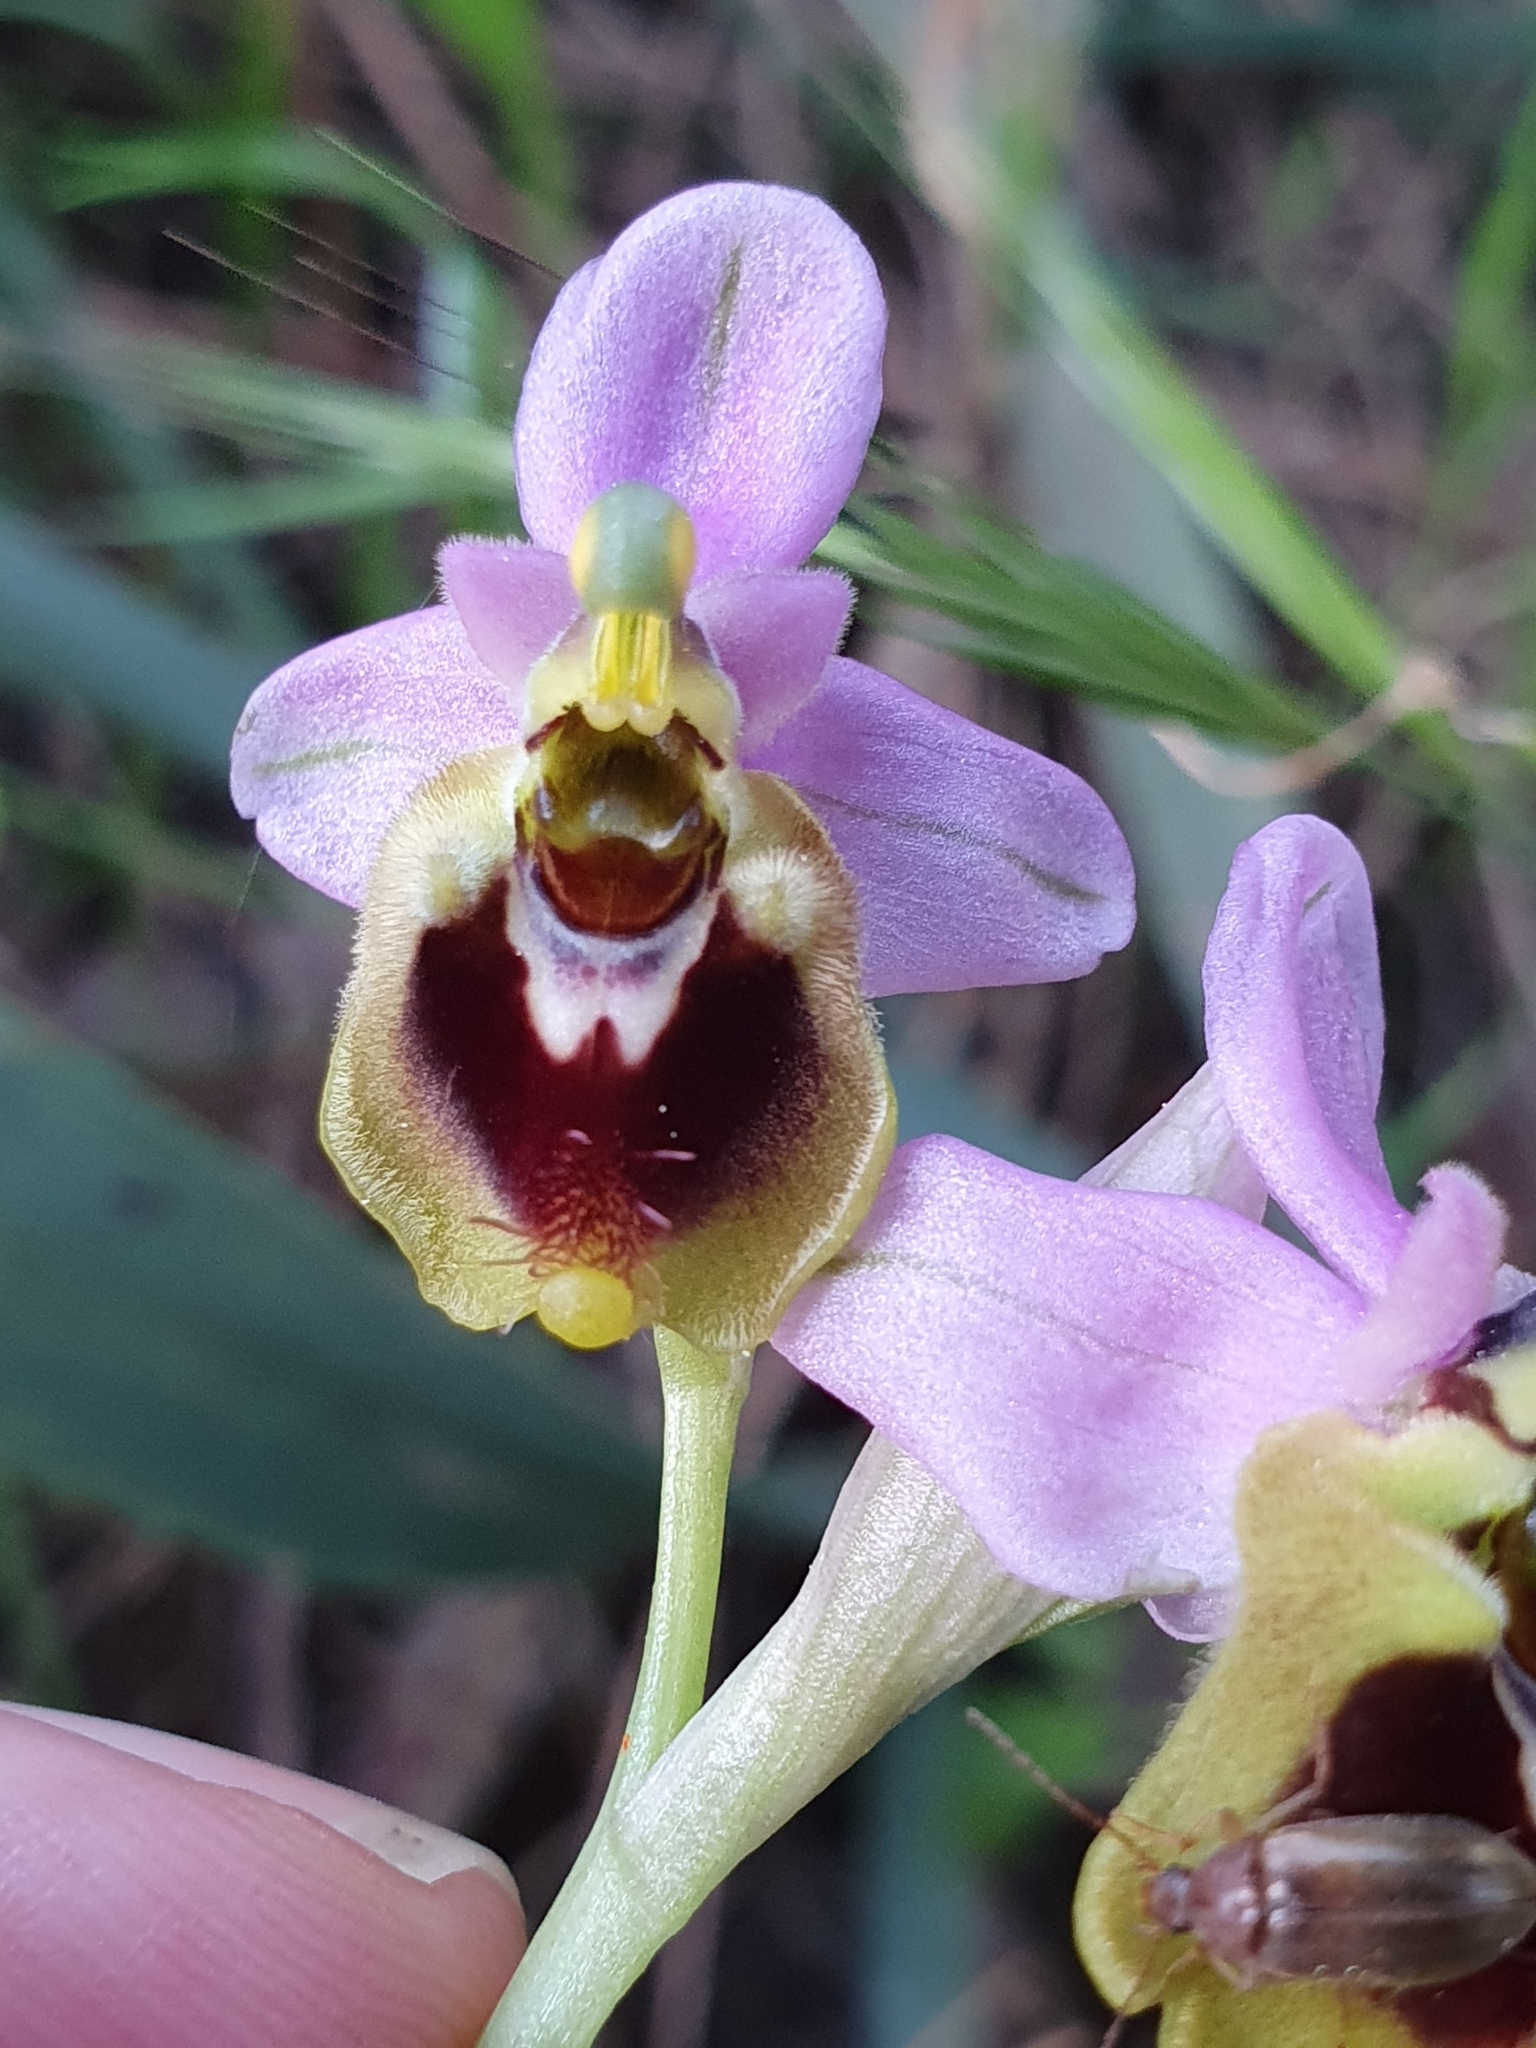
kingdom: Plantae
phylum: Tracheophyta
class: Liliopsida
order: Asparagales
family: Orchidaceae
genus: Ophrys
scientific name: Ophrys tenthredinifera
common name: Sawfly orchid
